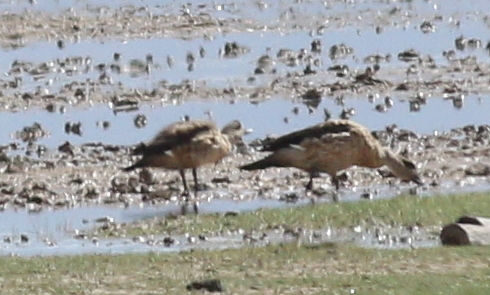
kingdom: Animalia
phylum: Chordata
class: Aves
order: Anseriformes
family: Anatidae
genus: Lophonetta
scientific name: Lophonetta specularioides
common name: Crested duck
